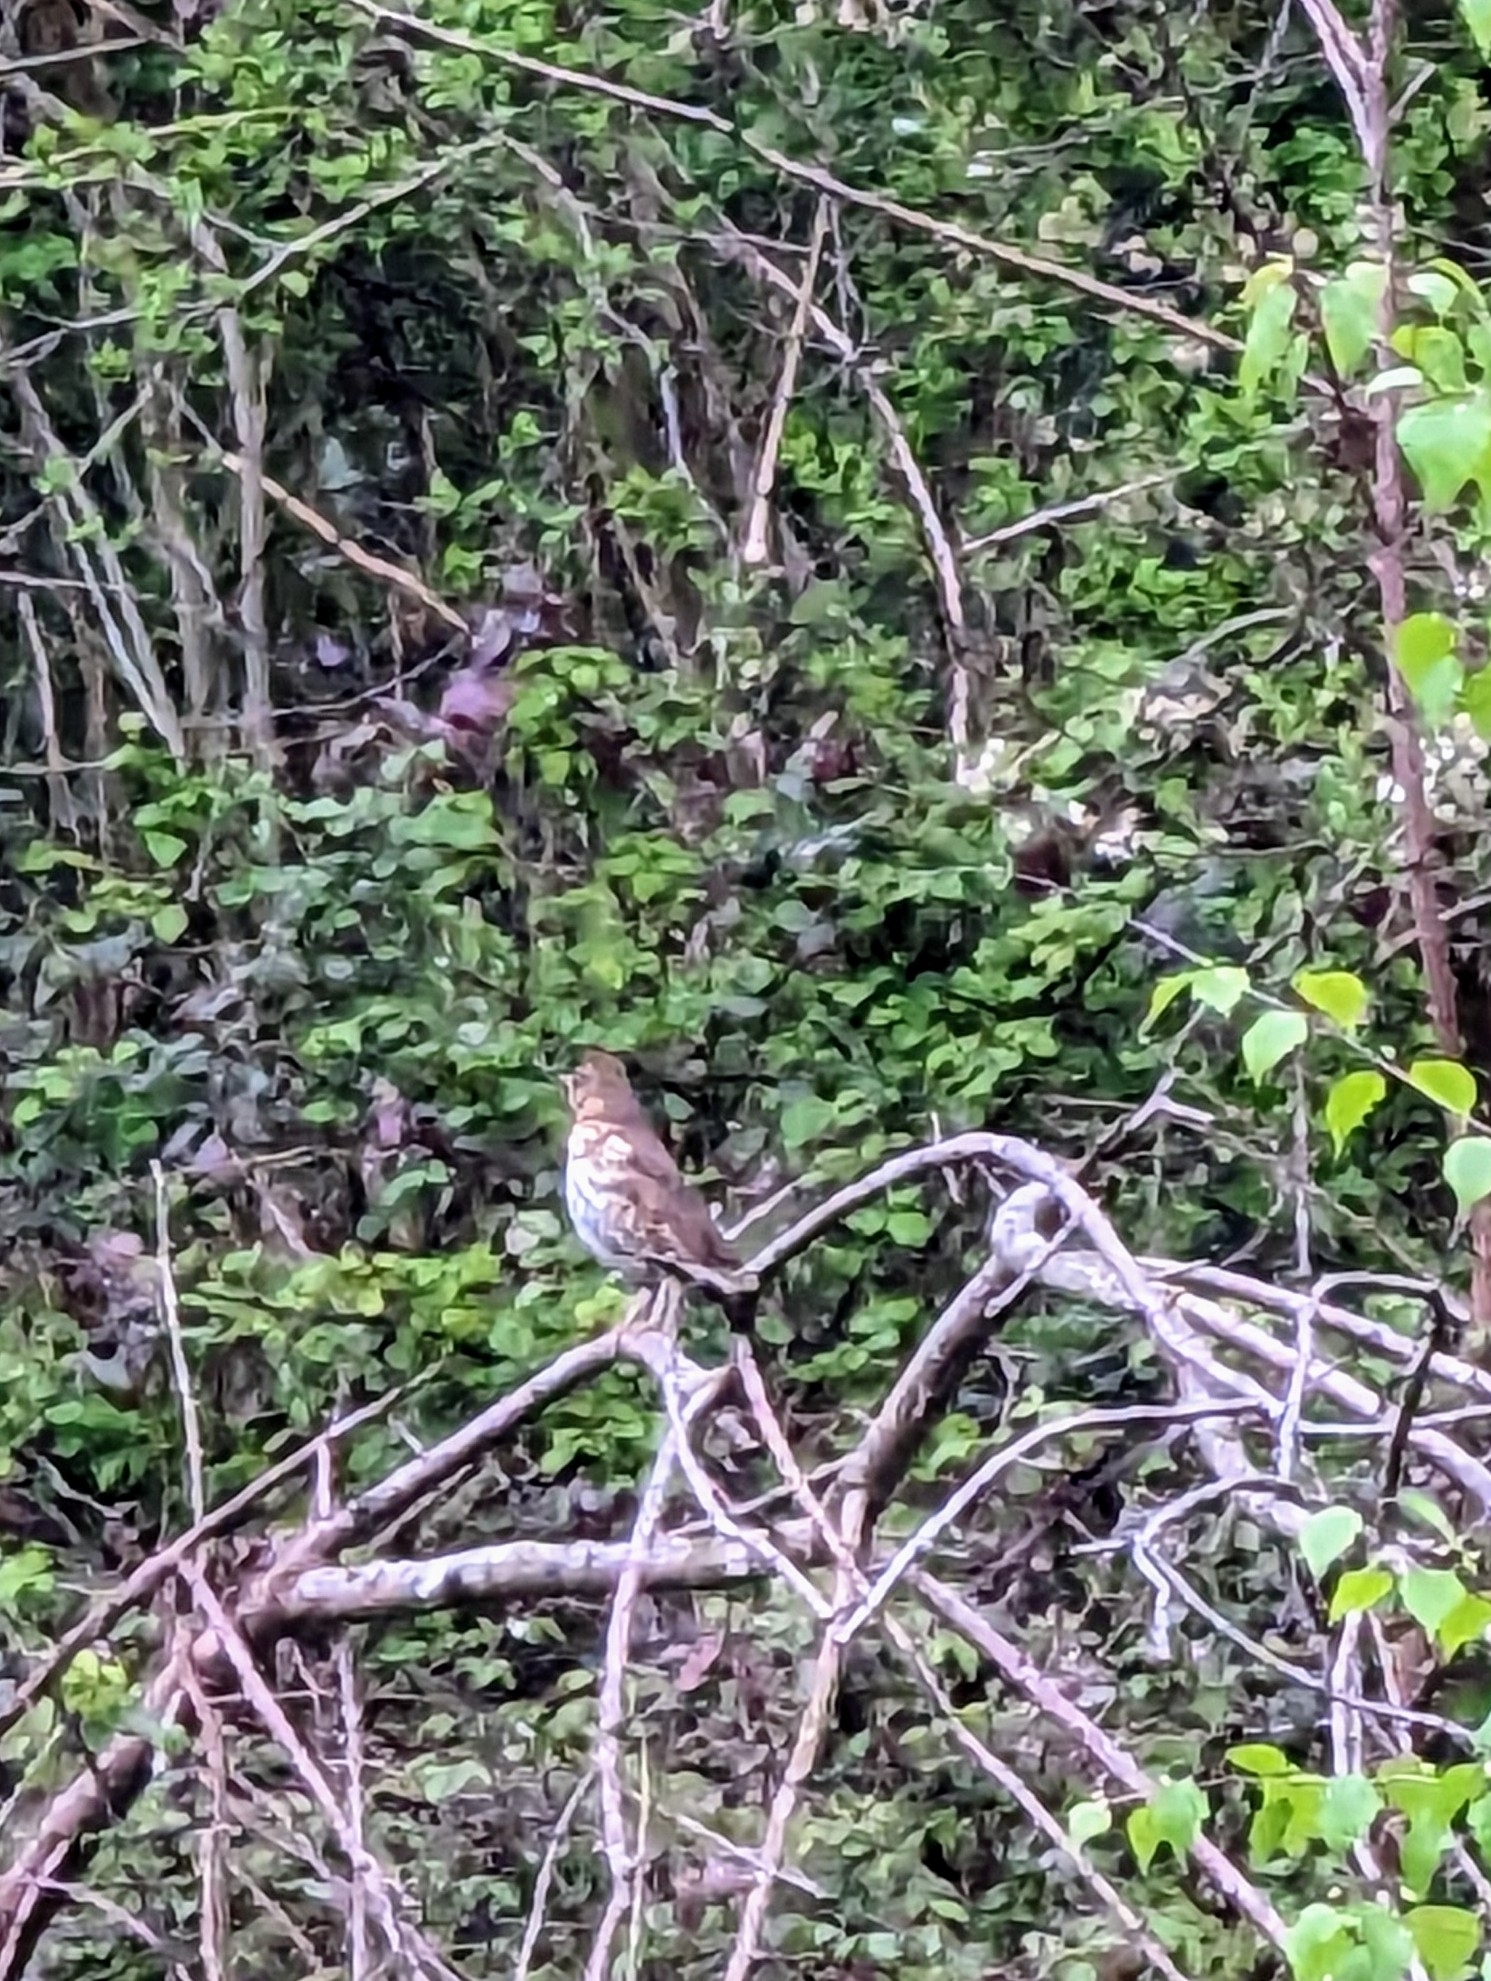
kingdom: Animalia
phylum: Chordata
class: Aves
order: Passeriformes
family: Turdidae
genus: Turdus
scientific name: Turdus philomelos
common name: Song thrush
